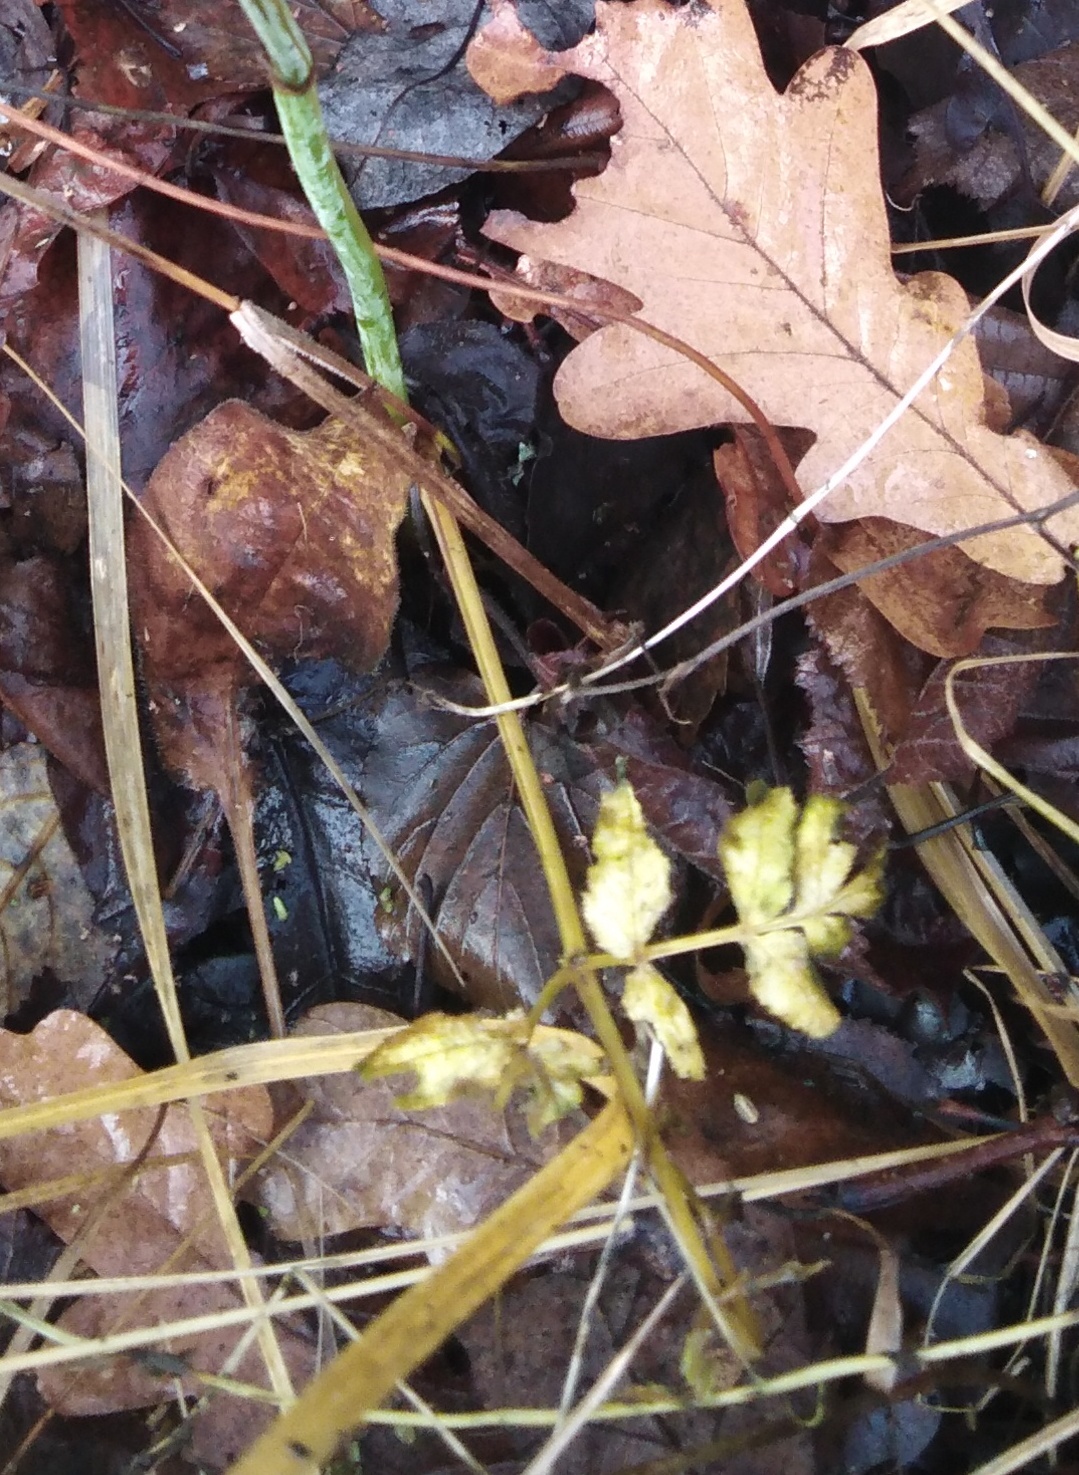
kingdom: Plantae
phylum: Tracheophyta
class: Magnoliopsida
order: Apiales
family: Apiaceae
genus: Angelica
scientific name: Angelica sylvestris
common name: Wild angelica
